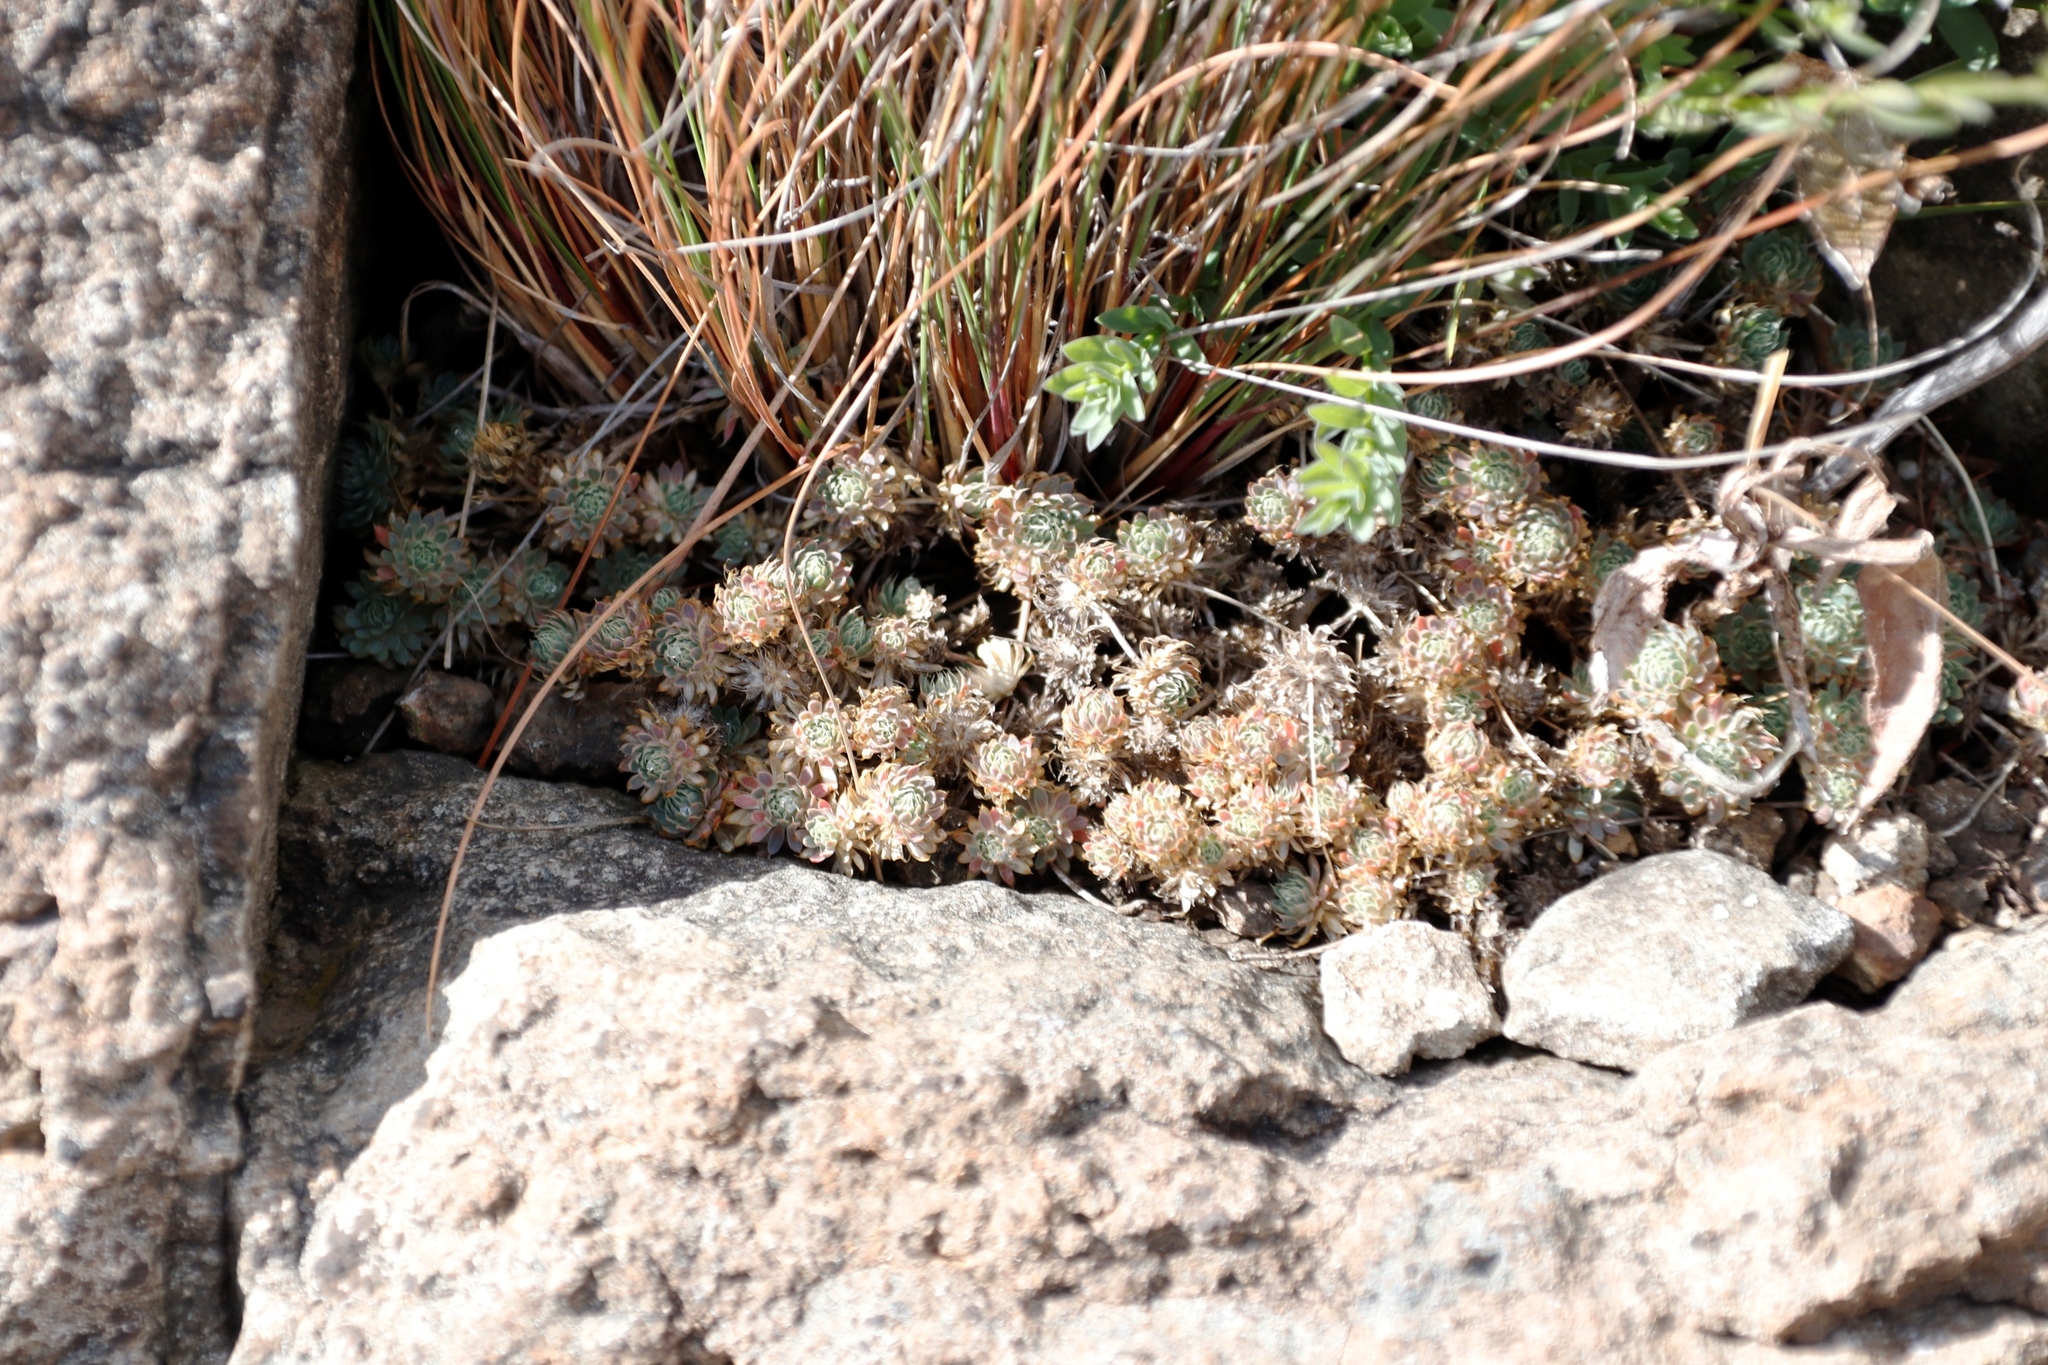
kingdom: Plantae
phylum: Tracheophyta
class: Magnoliopsida
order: Caryophyllales
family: Molluginaceae
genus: Psammotropha
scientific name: Psammotropha mucronata
